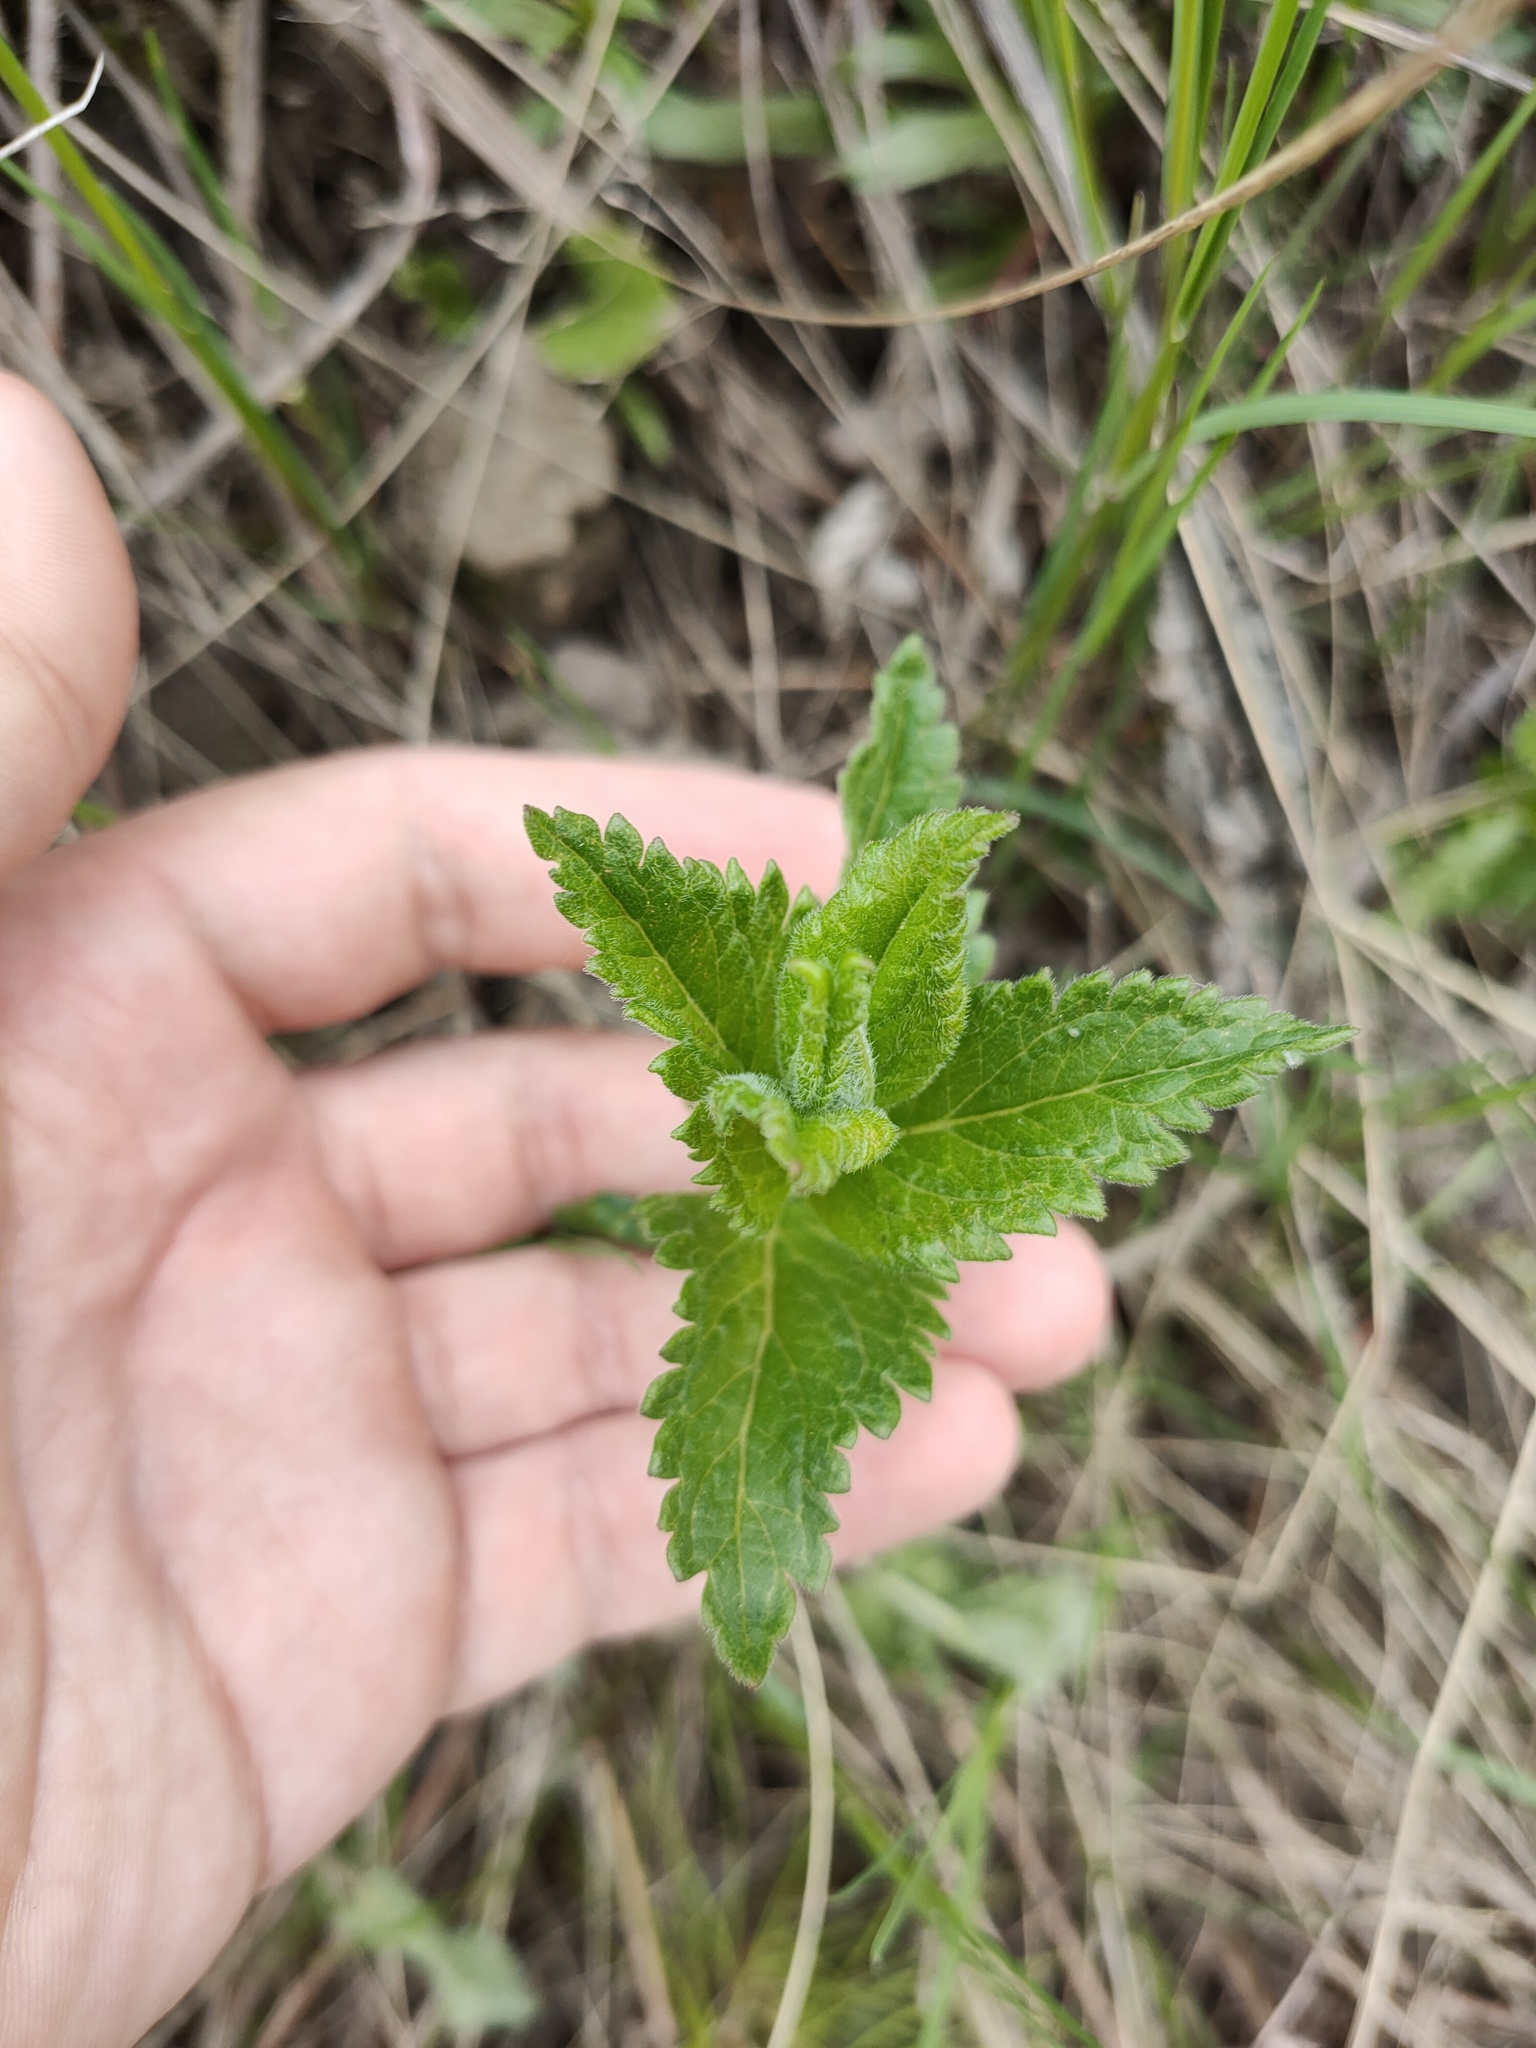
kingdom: Plantae
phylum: Tracheophyta
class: Magnoliopsida
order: Lamiales
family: Plantaginaceae
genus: Veronica
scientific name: Veronica teucrium
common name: Large speedwell
